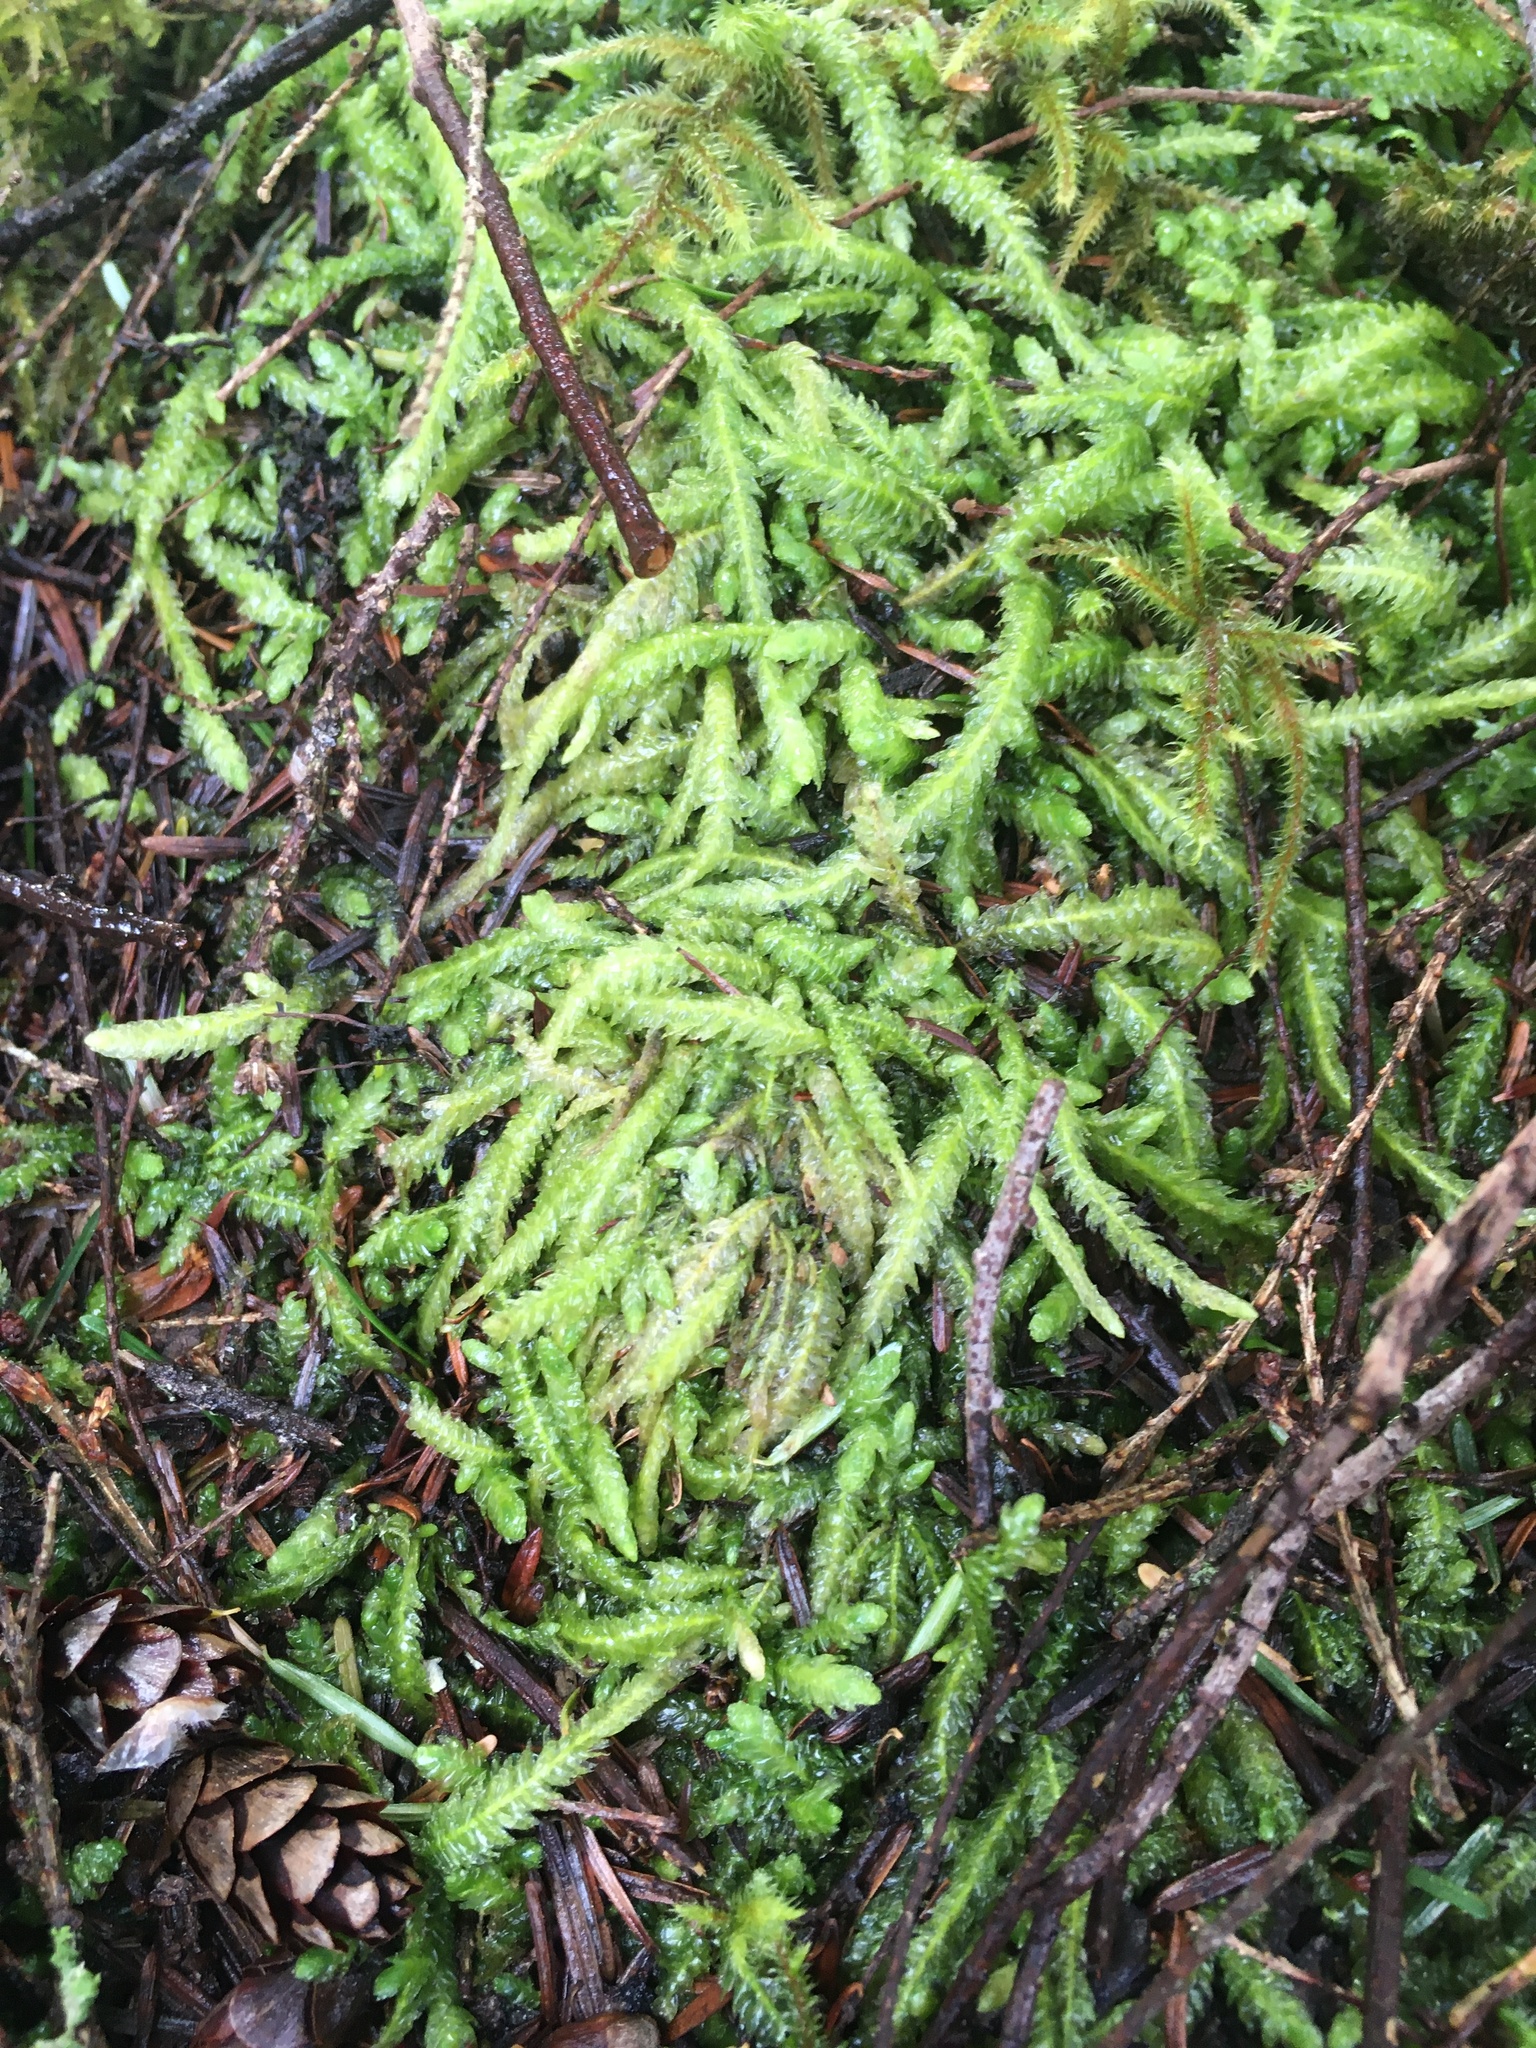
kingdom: Plantae
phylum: Bryophyta
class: Bryopsida
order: Hypnales
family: Plagiotheciaceae
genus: Plagiothecium
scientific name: Plagiothecium undulatum
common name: Waved silk-moss
